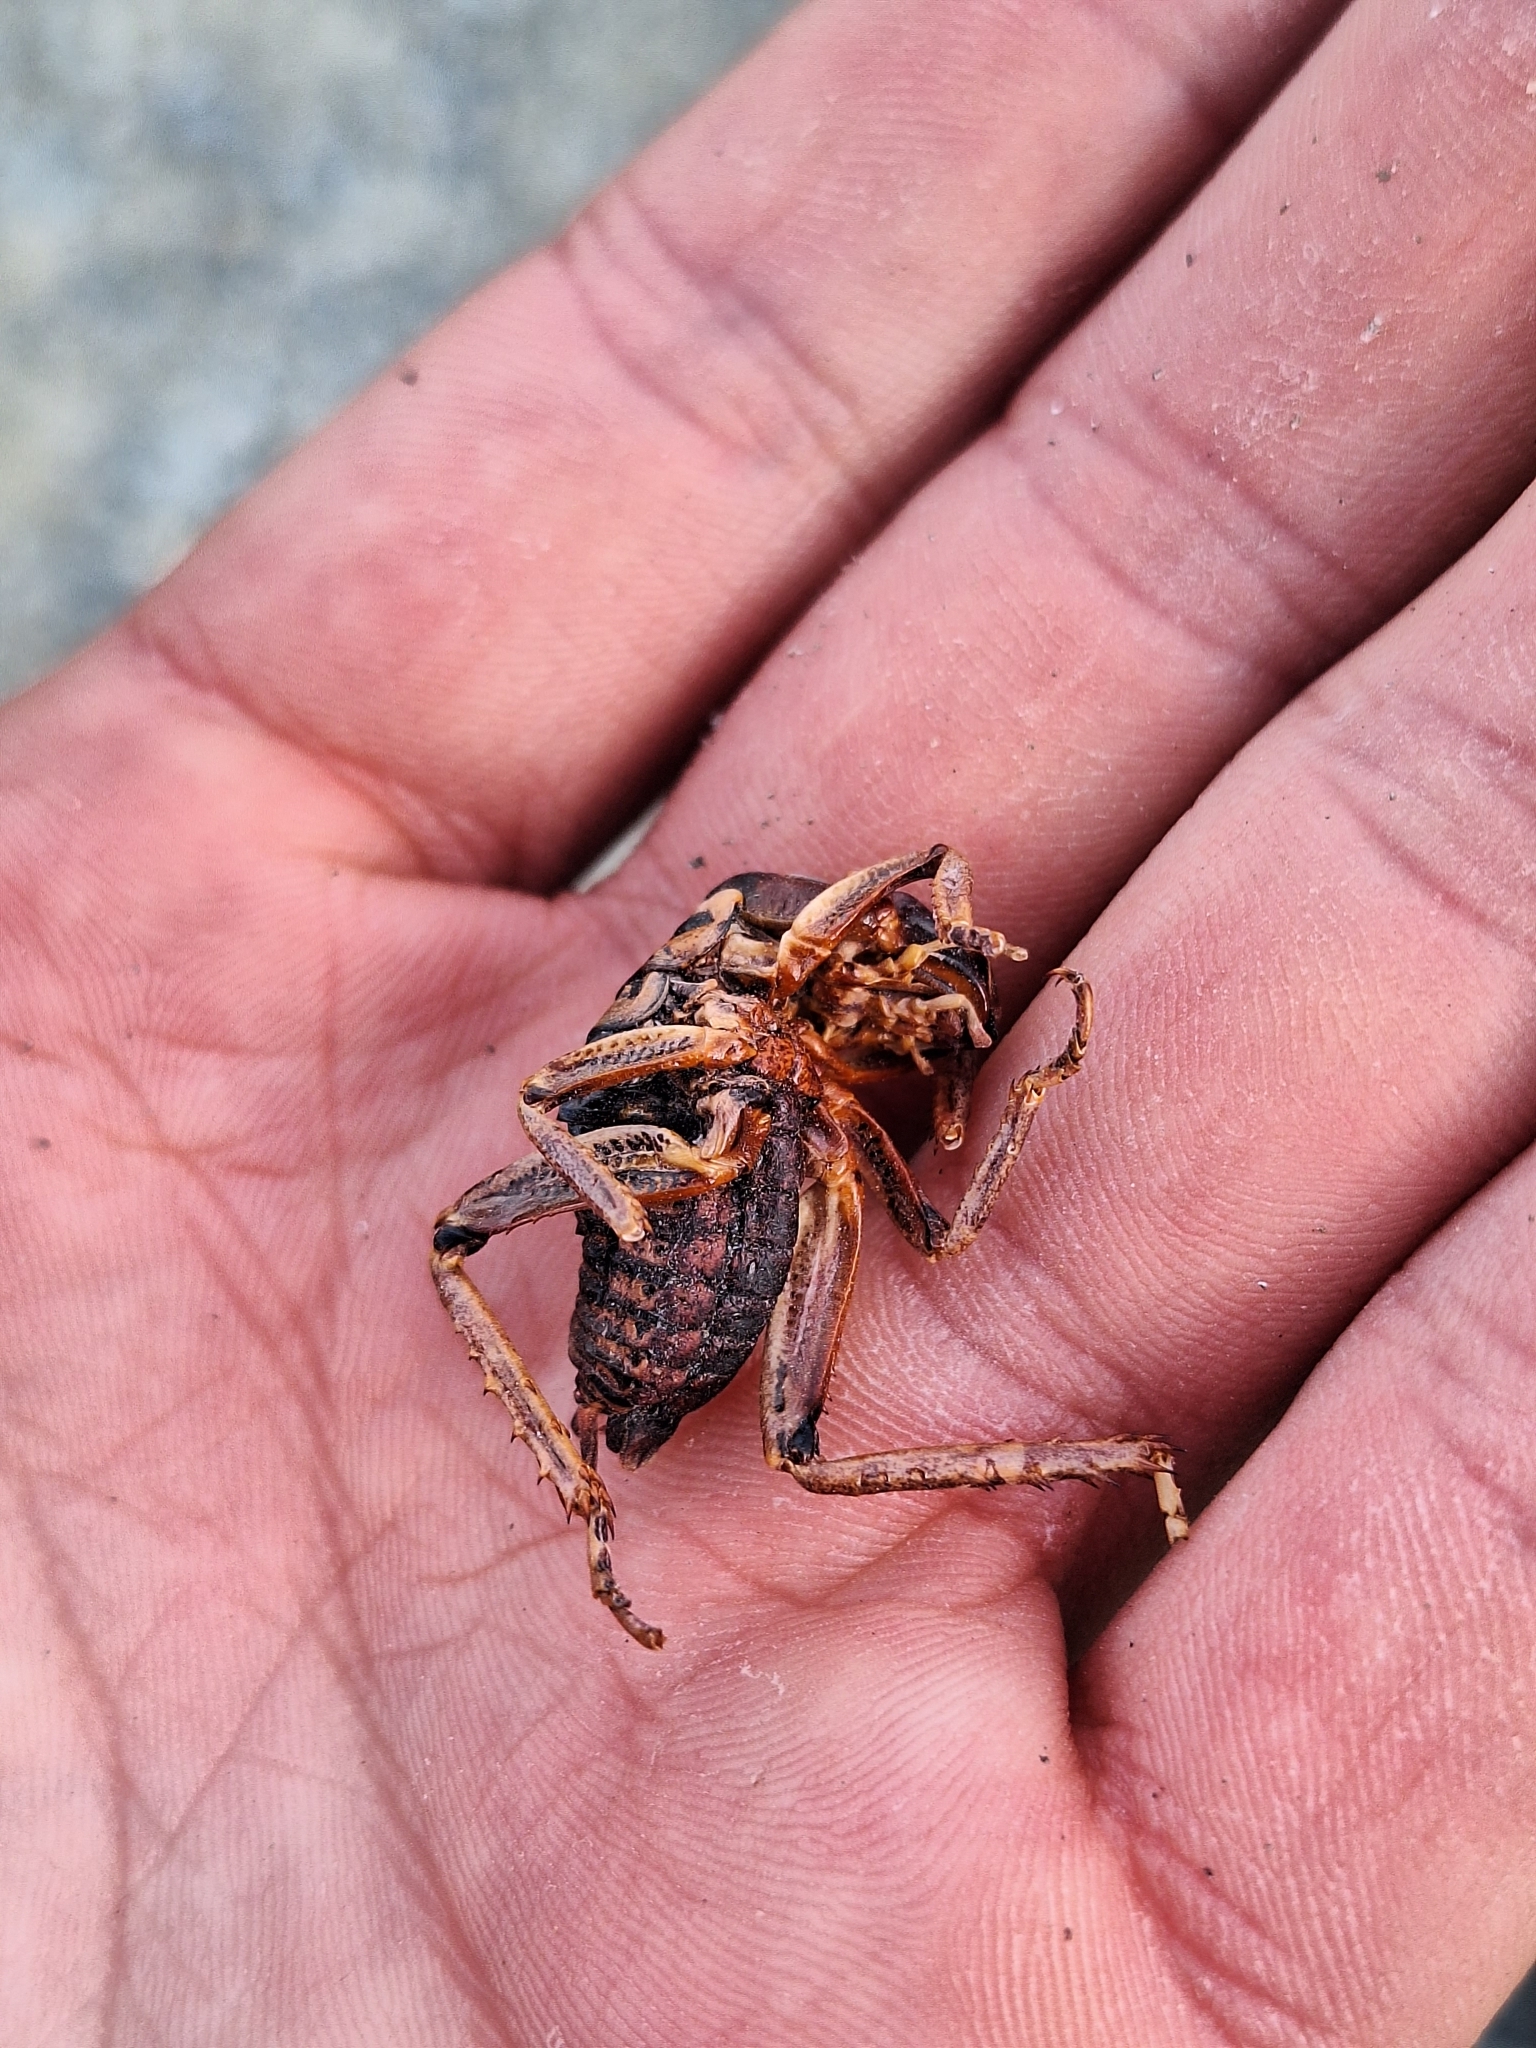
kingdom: Animalia
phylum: Arthropoda
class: Insecta
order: Orthoptera
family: Anostostomatidae
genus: Hemideina
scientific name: Hemideina maori
